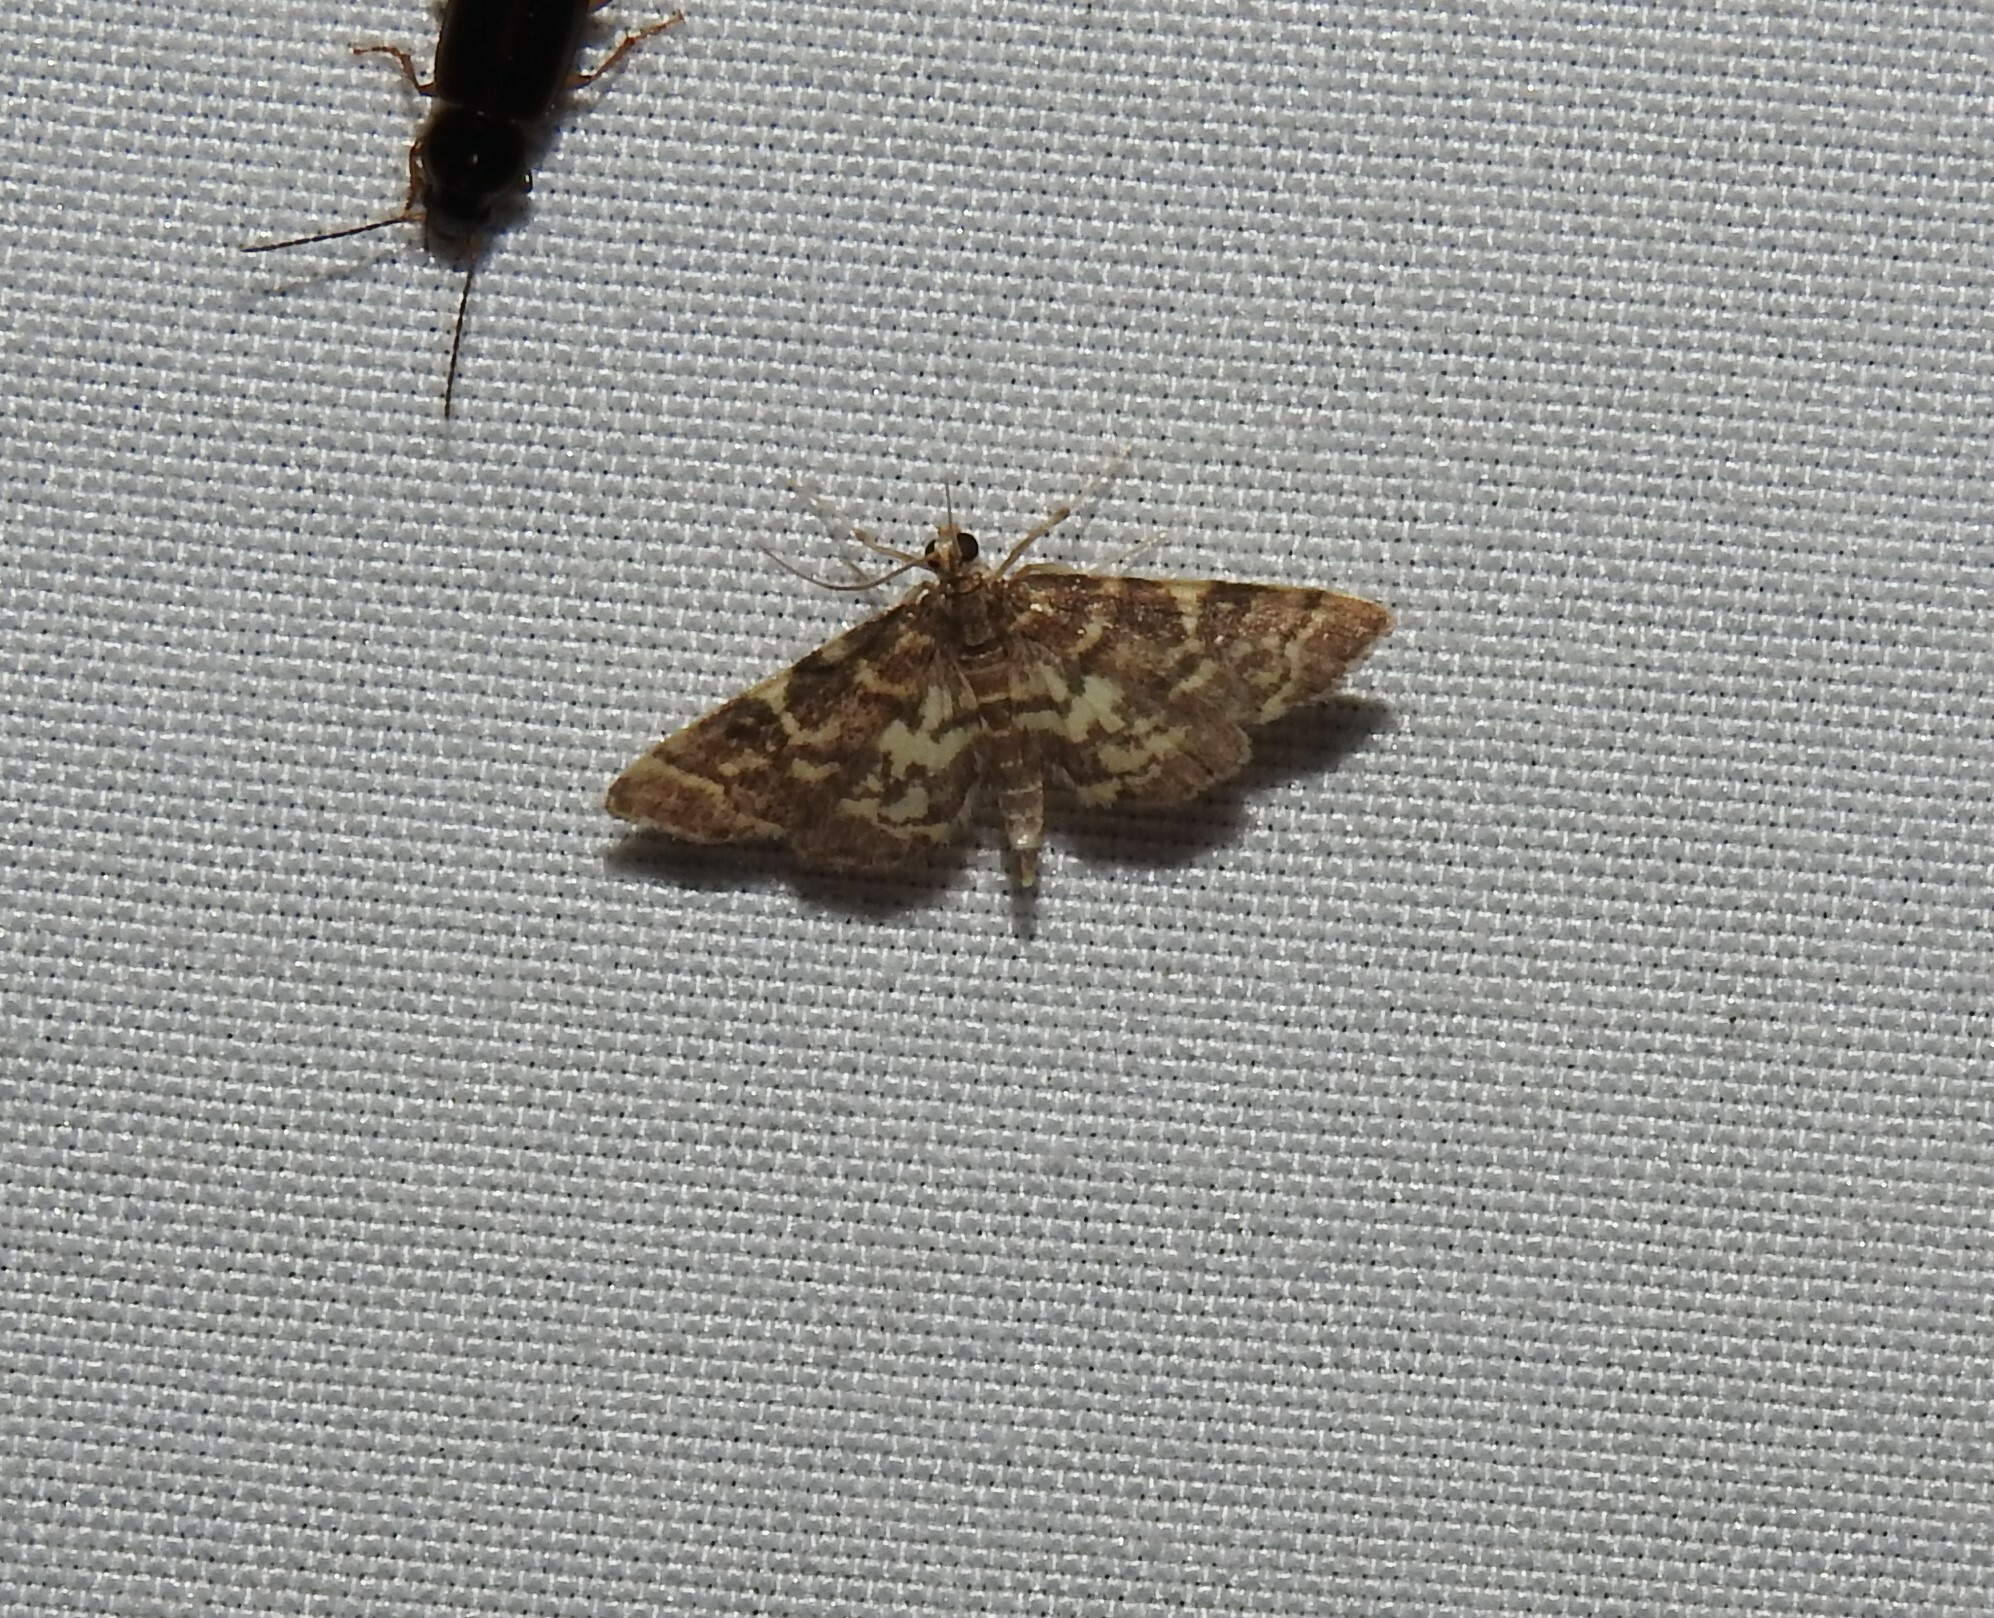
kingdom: Animalia
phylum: Arthropoda
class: Insecta
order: Lepidoptera
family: Crambidae
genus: Anageshna
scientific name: Anageshna primordialis
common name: Yellow-spotted webworm moth
